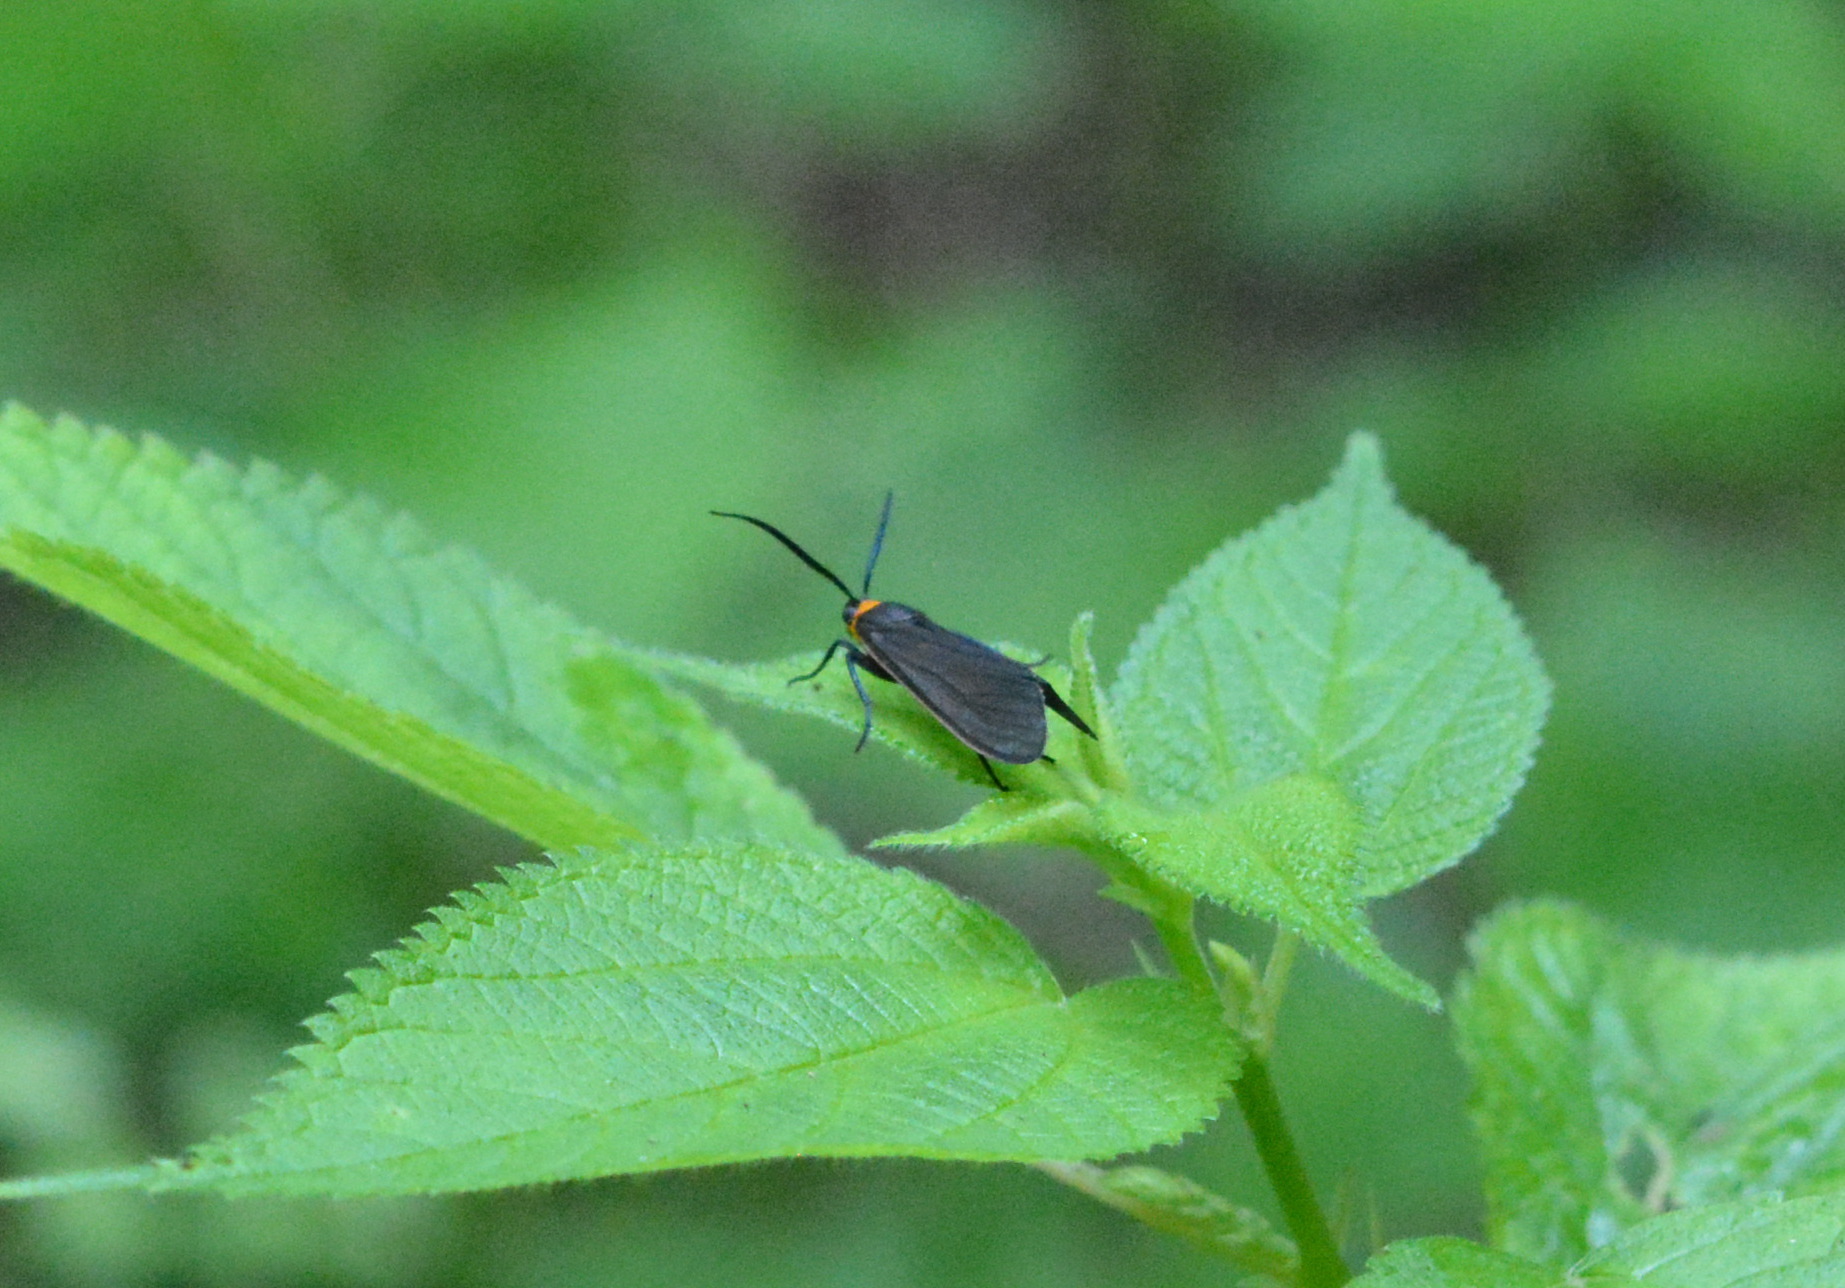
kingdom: Animalia
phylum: Arthropoda
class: Insecta
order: Lepidoptera
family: Erebidae
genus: Cisseps
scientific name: Cisseps fulvicollis
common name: Yellow-collared scape moth
